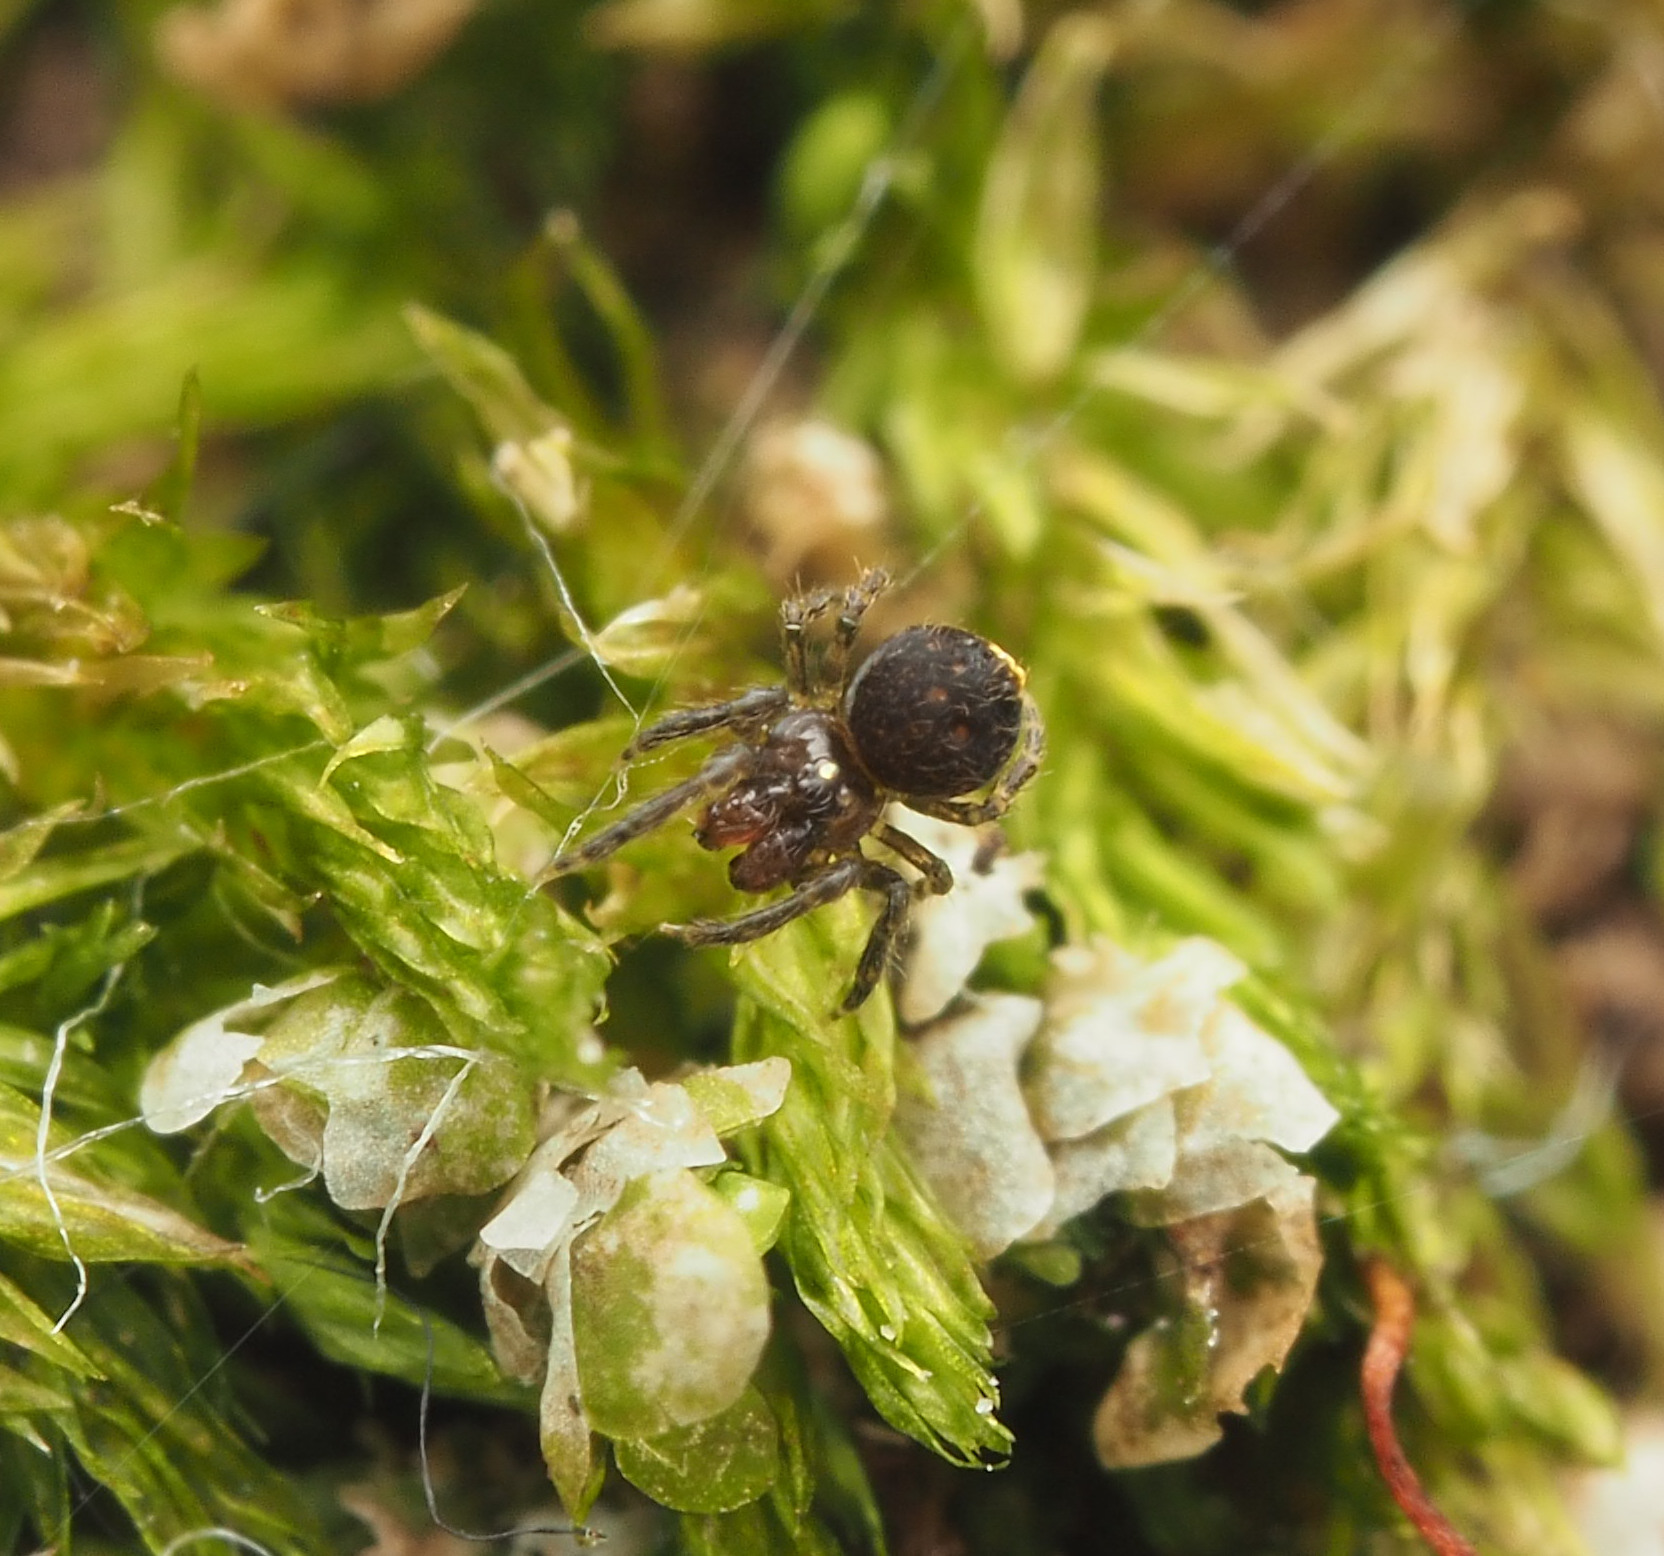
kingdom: Animalia
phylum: Arthropoda
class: Arachnida
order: Araneae
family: Mysmenidae
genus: Trogloneta
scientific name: Trogloneta
